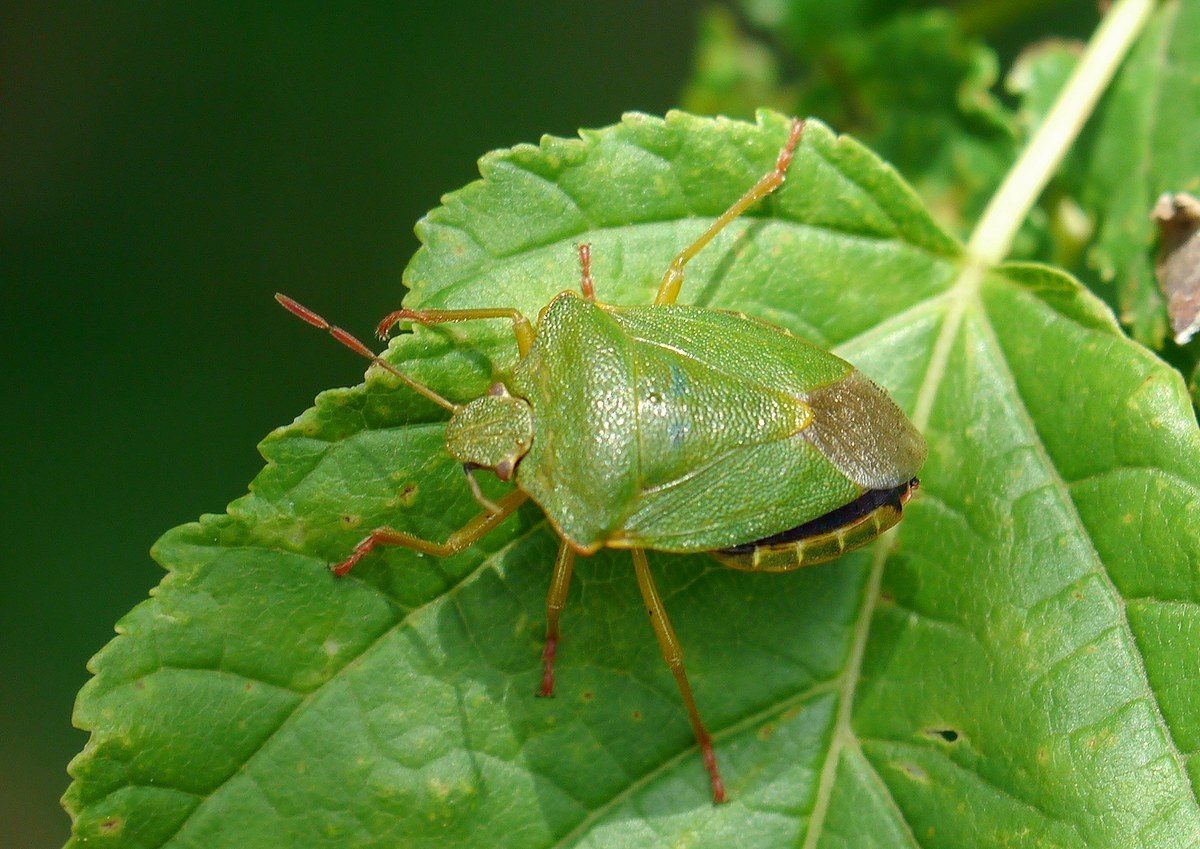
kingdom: Animalia
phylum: Arthropoda
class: Insecta
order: Hemiptera
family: Pentatomidae
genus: Palomena
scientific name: Palomena prasina
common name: Green shieldbug
